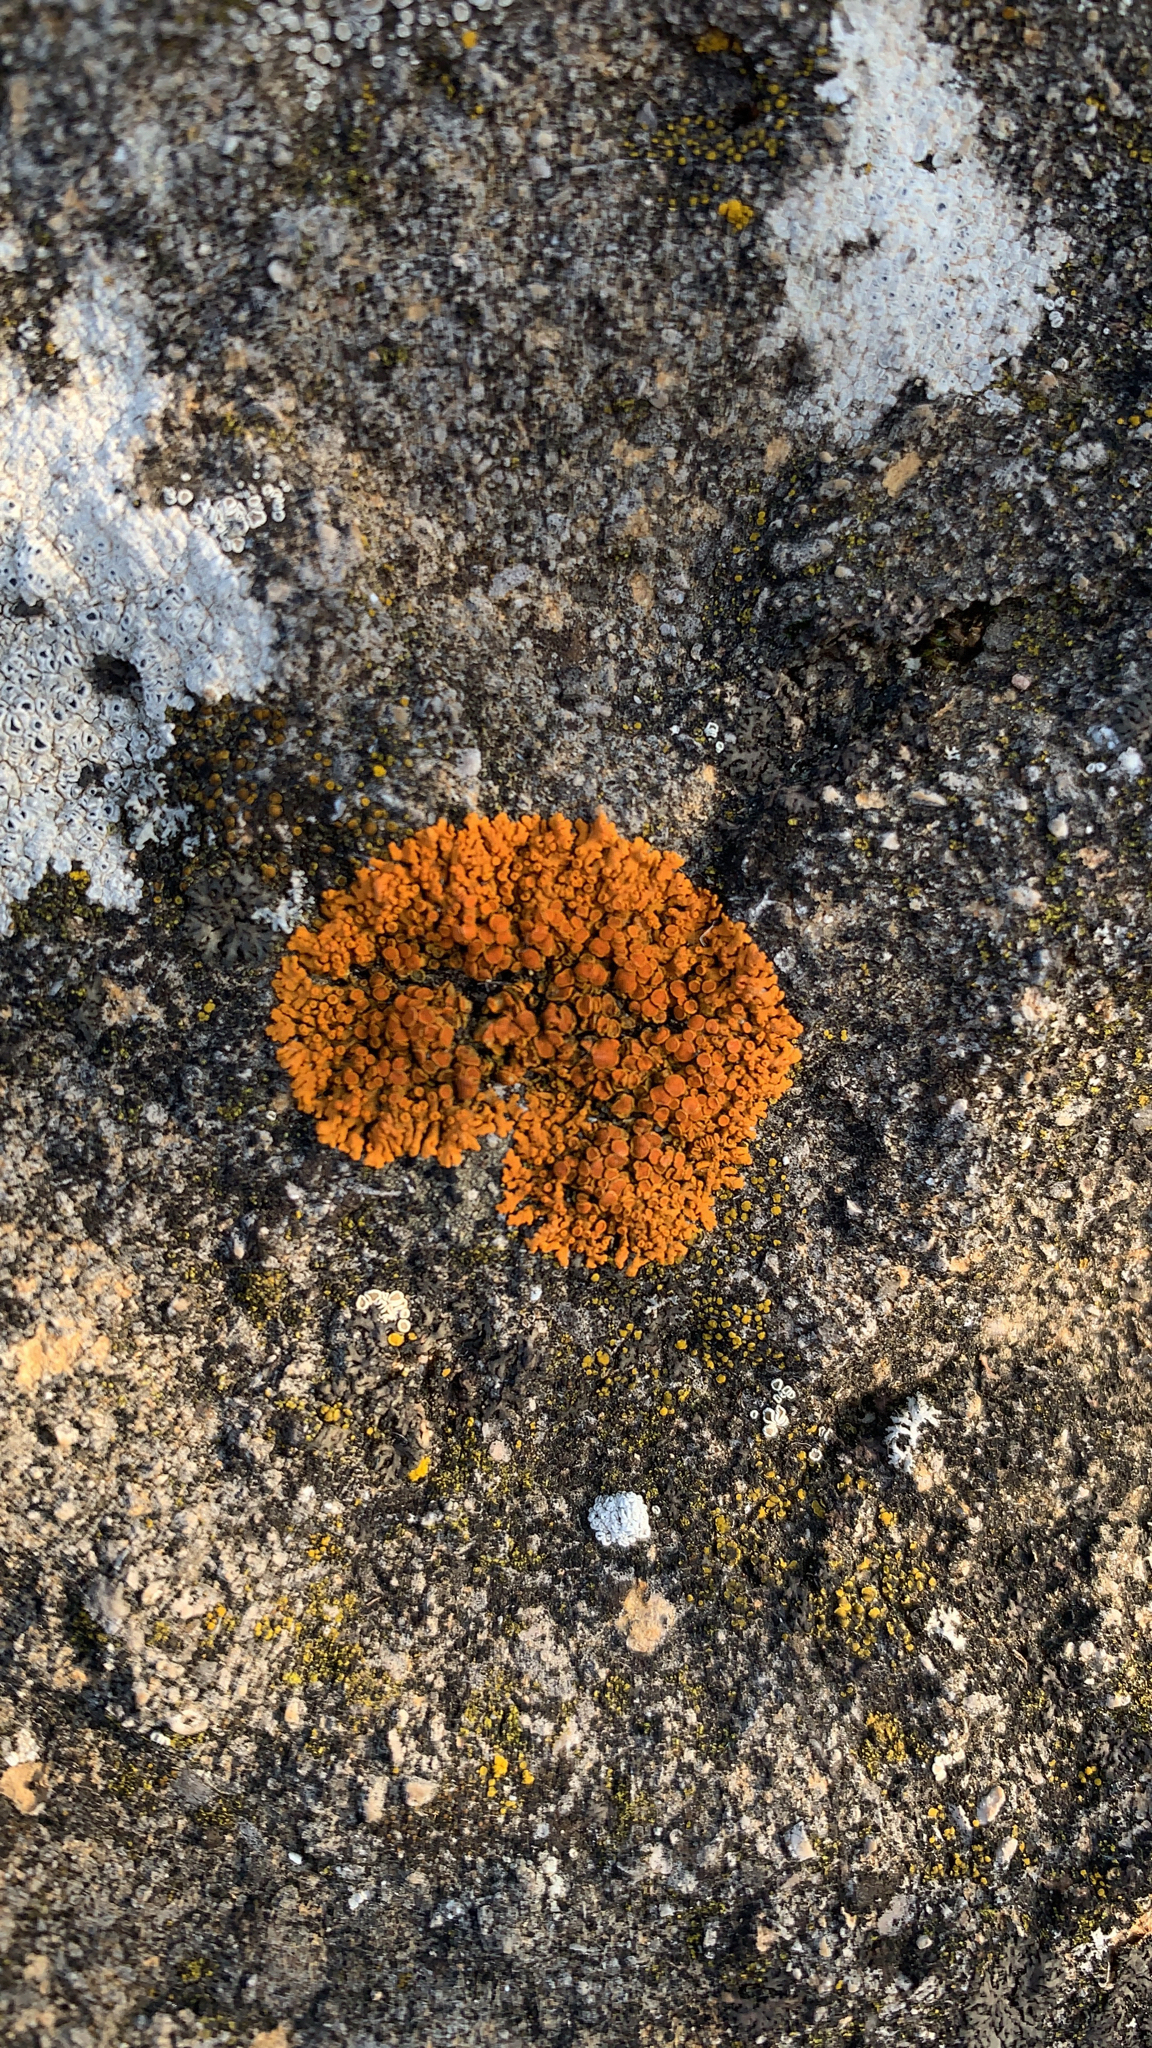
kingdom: Fungi
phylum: Ascomycota
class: Lecanoromycetes
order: Teloschistales
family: Teloschistaceae
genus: Xanthoria
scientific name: Xanthoria elegans
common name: Elegant sunburst lichen
